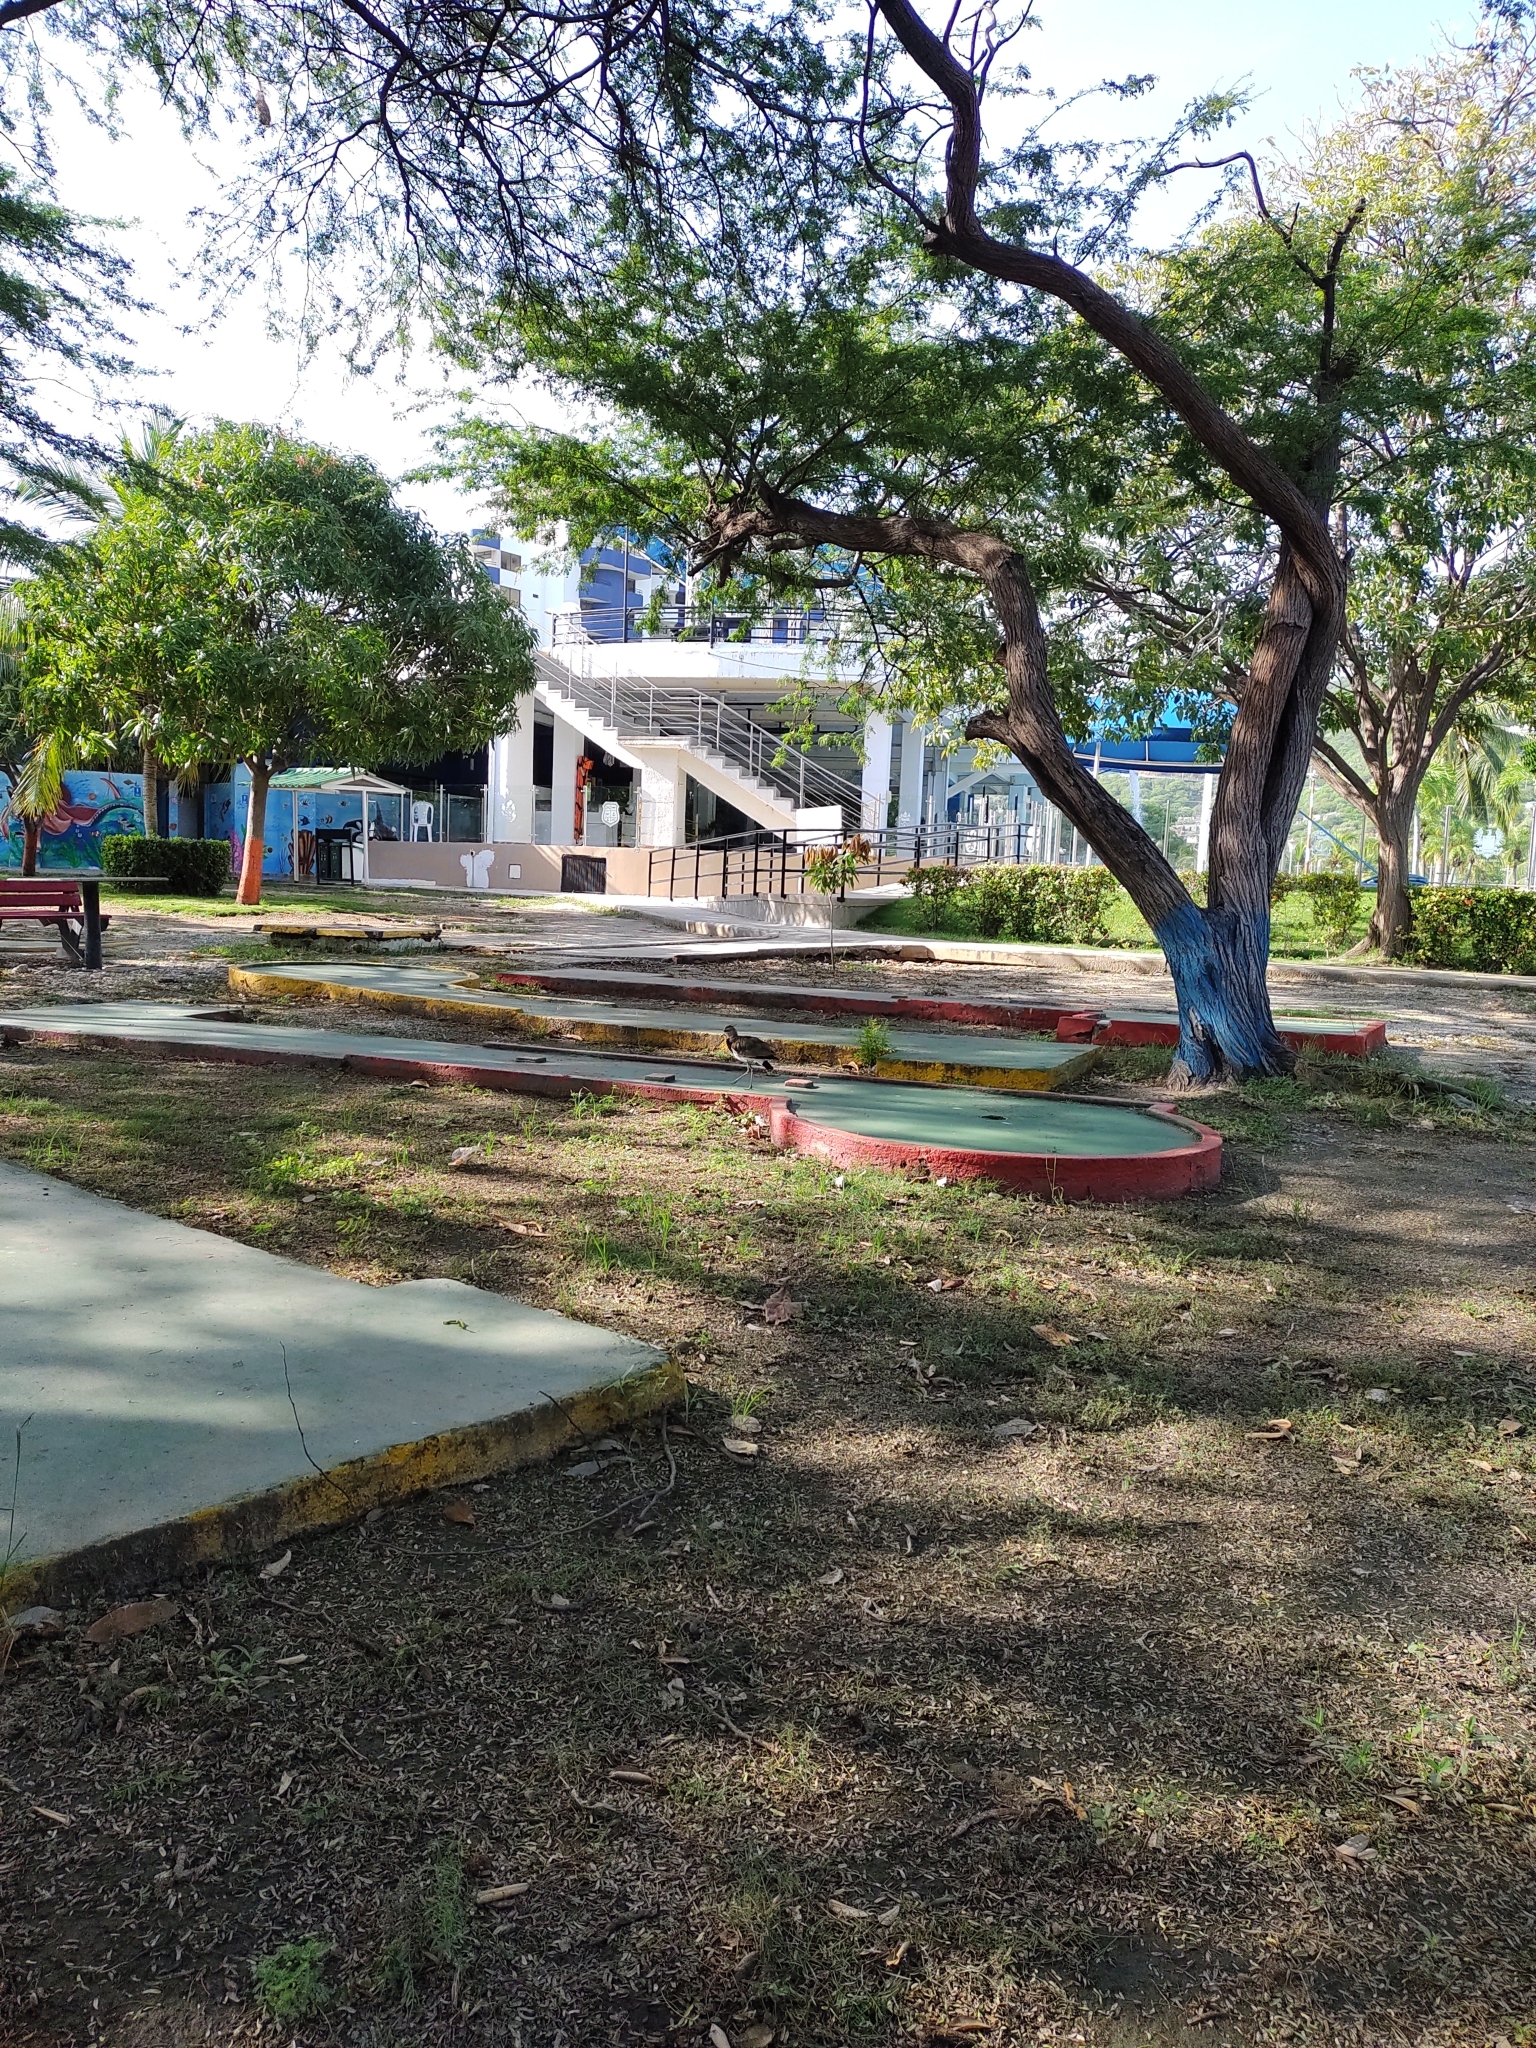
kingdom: Animalia
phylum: Chordata
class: Aves
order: Charadriiformes
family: Charadriidae
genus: Vanellus
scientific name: Vanellus chilensis
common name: Southern lapwing
